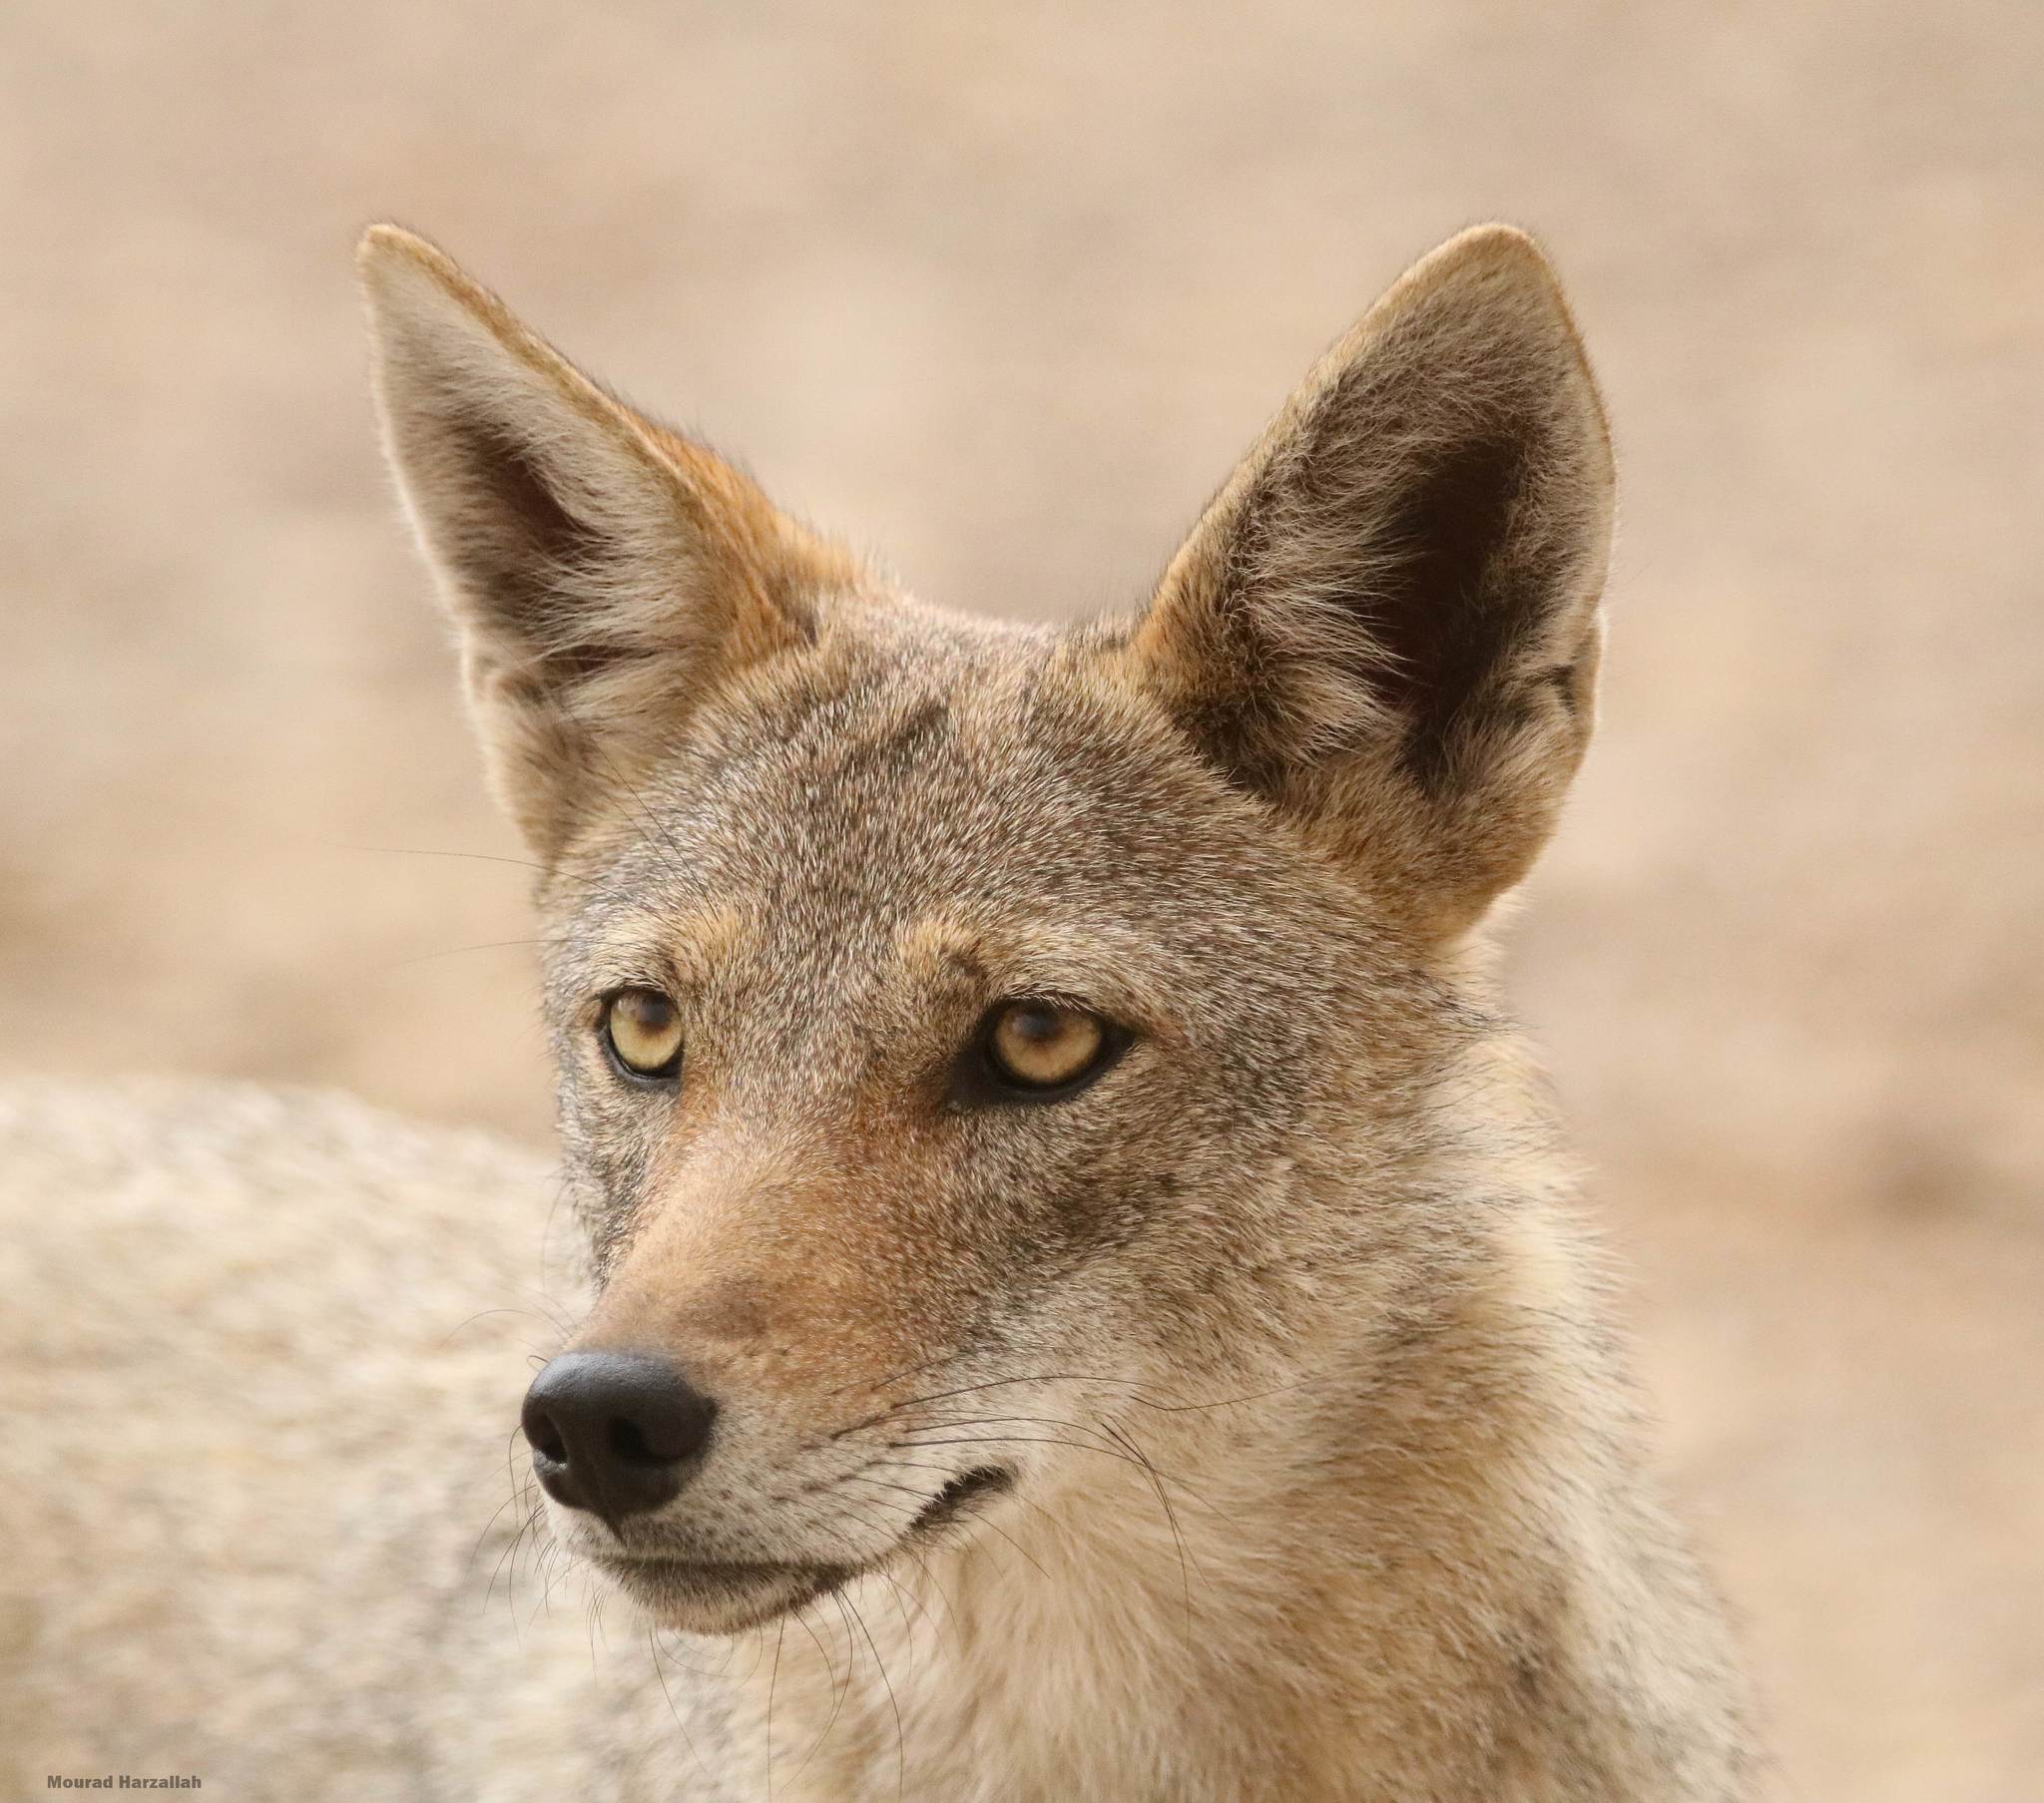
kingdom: Animalia
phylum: Chordata
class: Mammalia
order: Carnivora
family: Canidae
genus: Canis
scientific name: Canis lupaster
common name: African golden wolf
